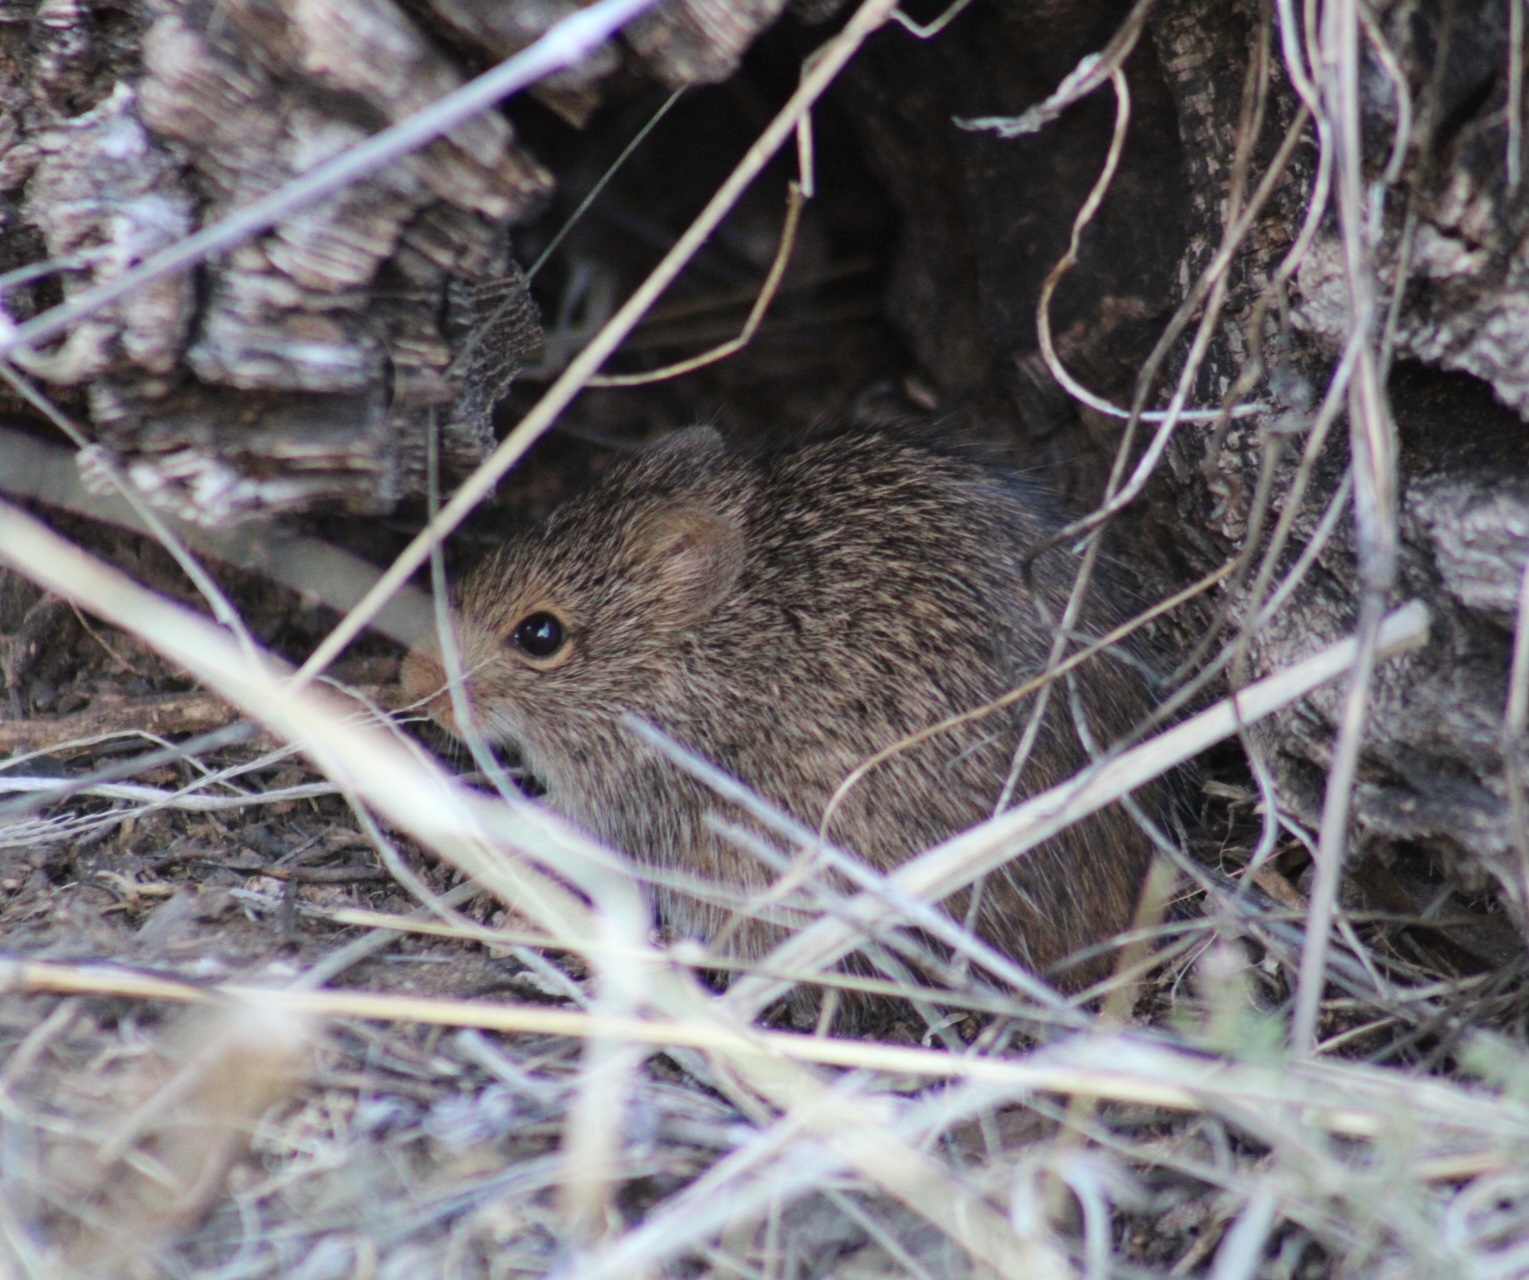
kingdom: Animalia
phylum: Chordata
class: Mammalia
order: Rodentia
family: Cricetidae
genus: Sigmodon
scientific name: Sigmodon arizonae
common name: Arizona cotton rat
